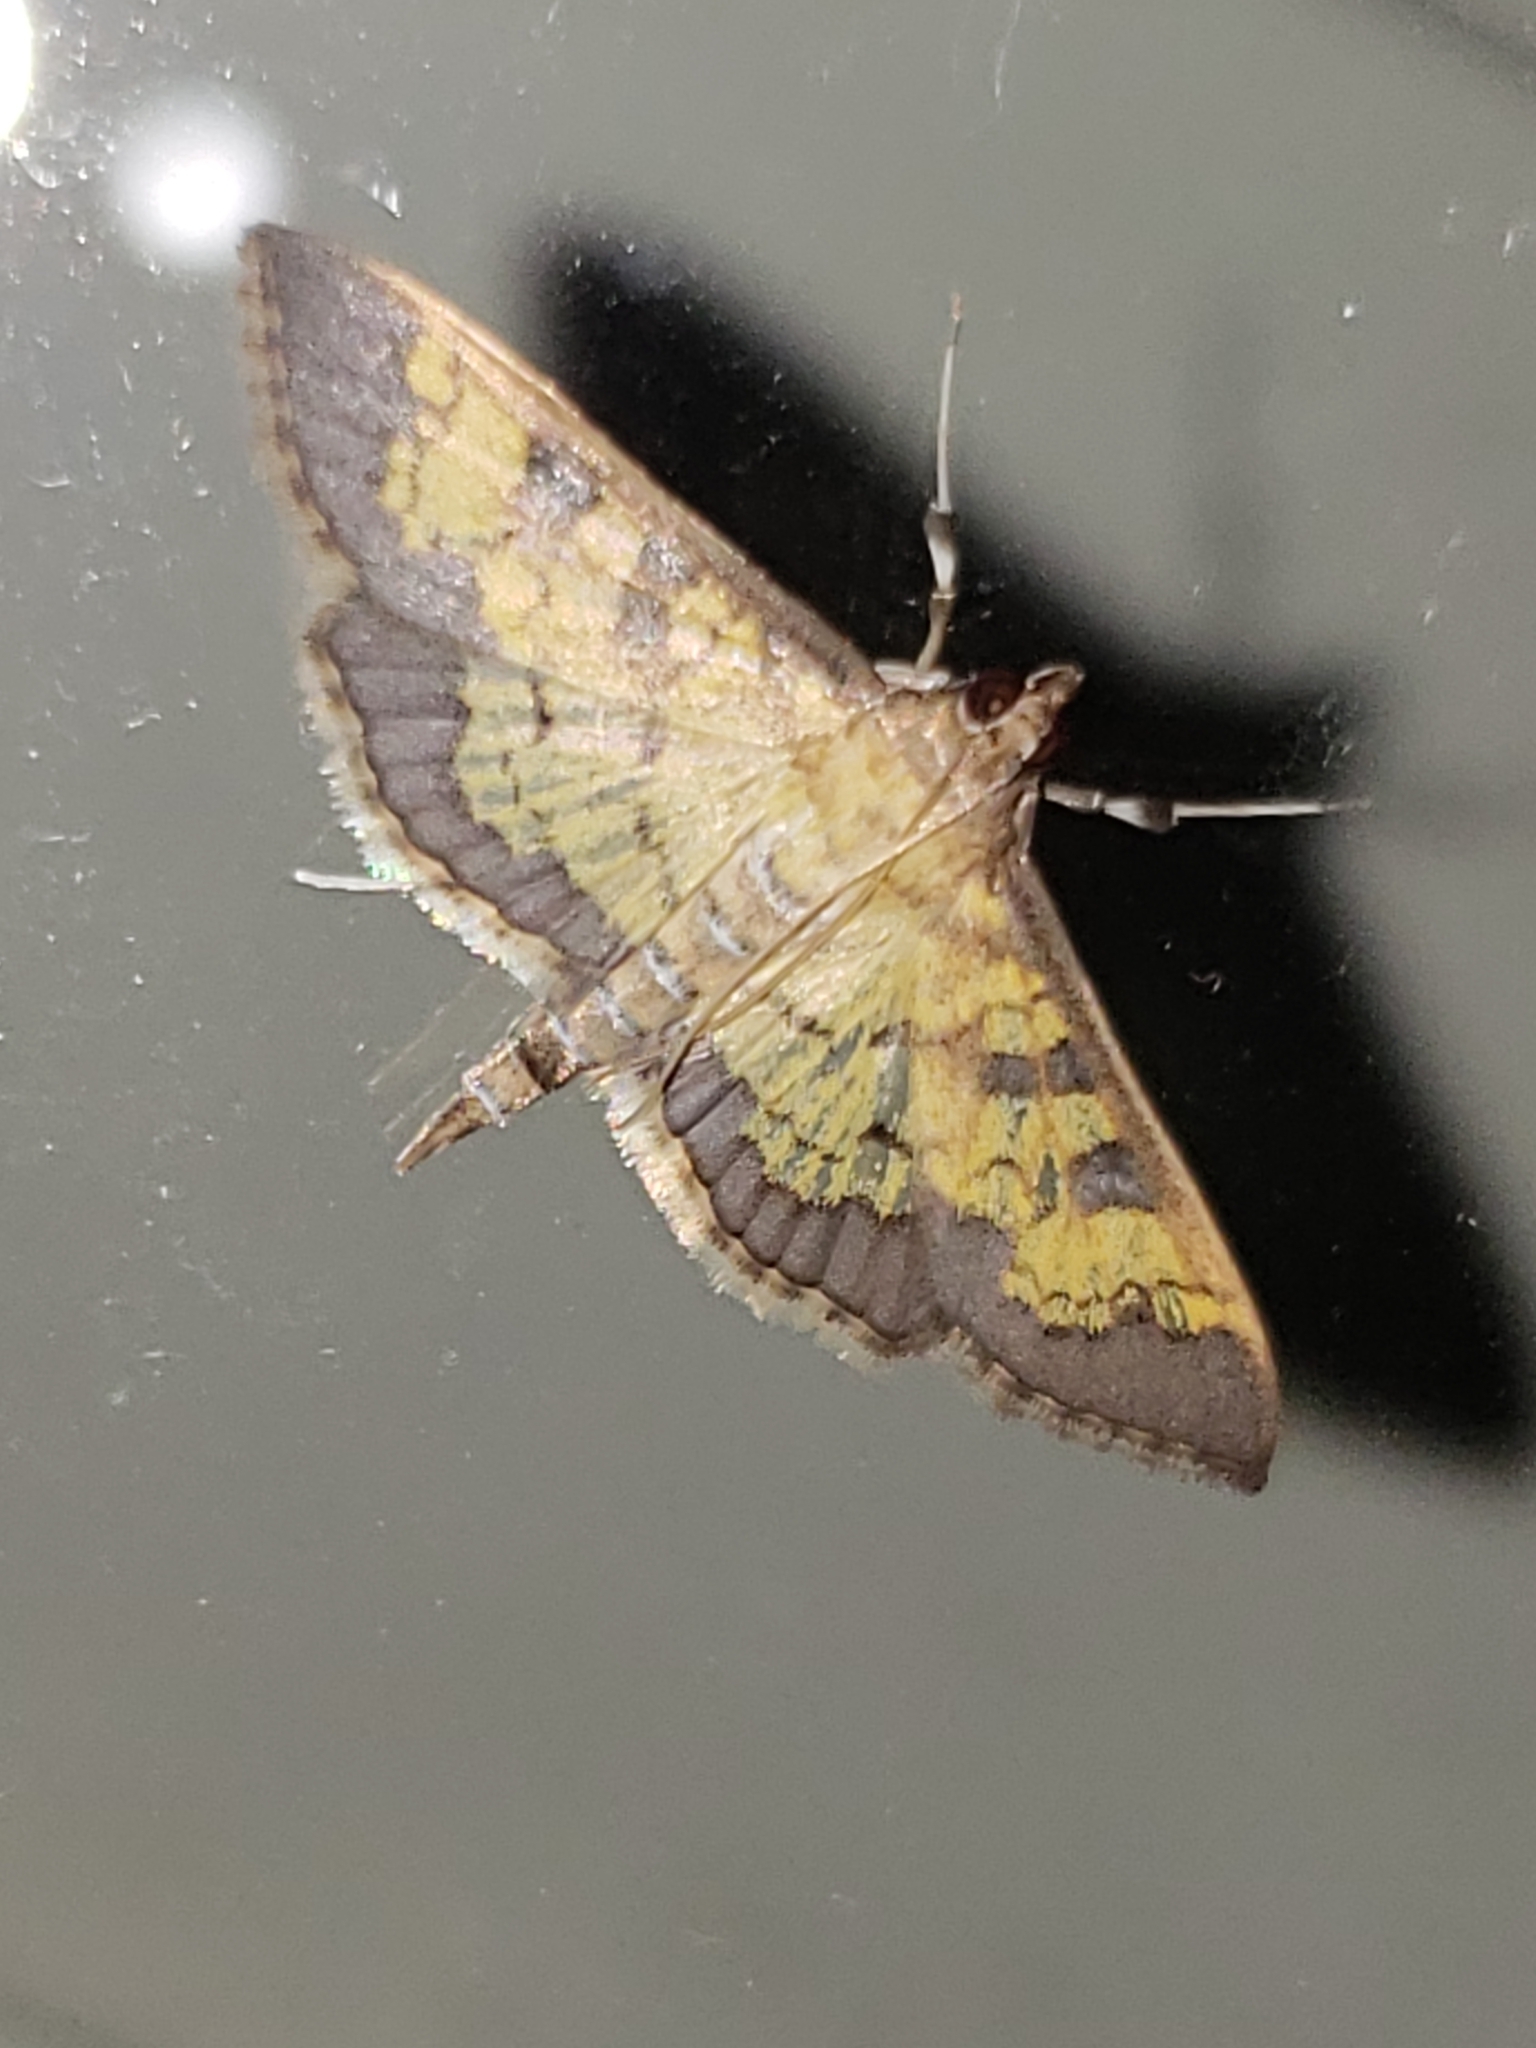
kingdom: Animalia
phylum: Arthropoda
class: Insecta
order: Lepidoptera
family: Crambidae
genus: Cryptographis
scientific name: Cryptographis elealis
